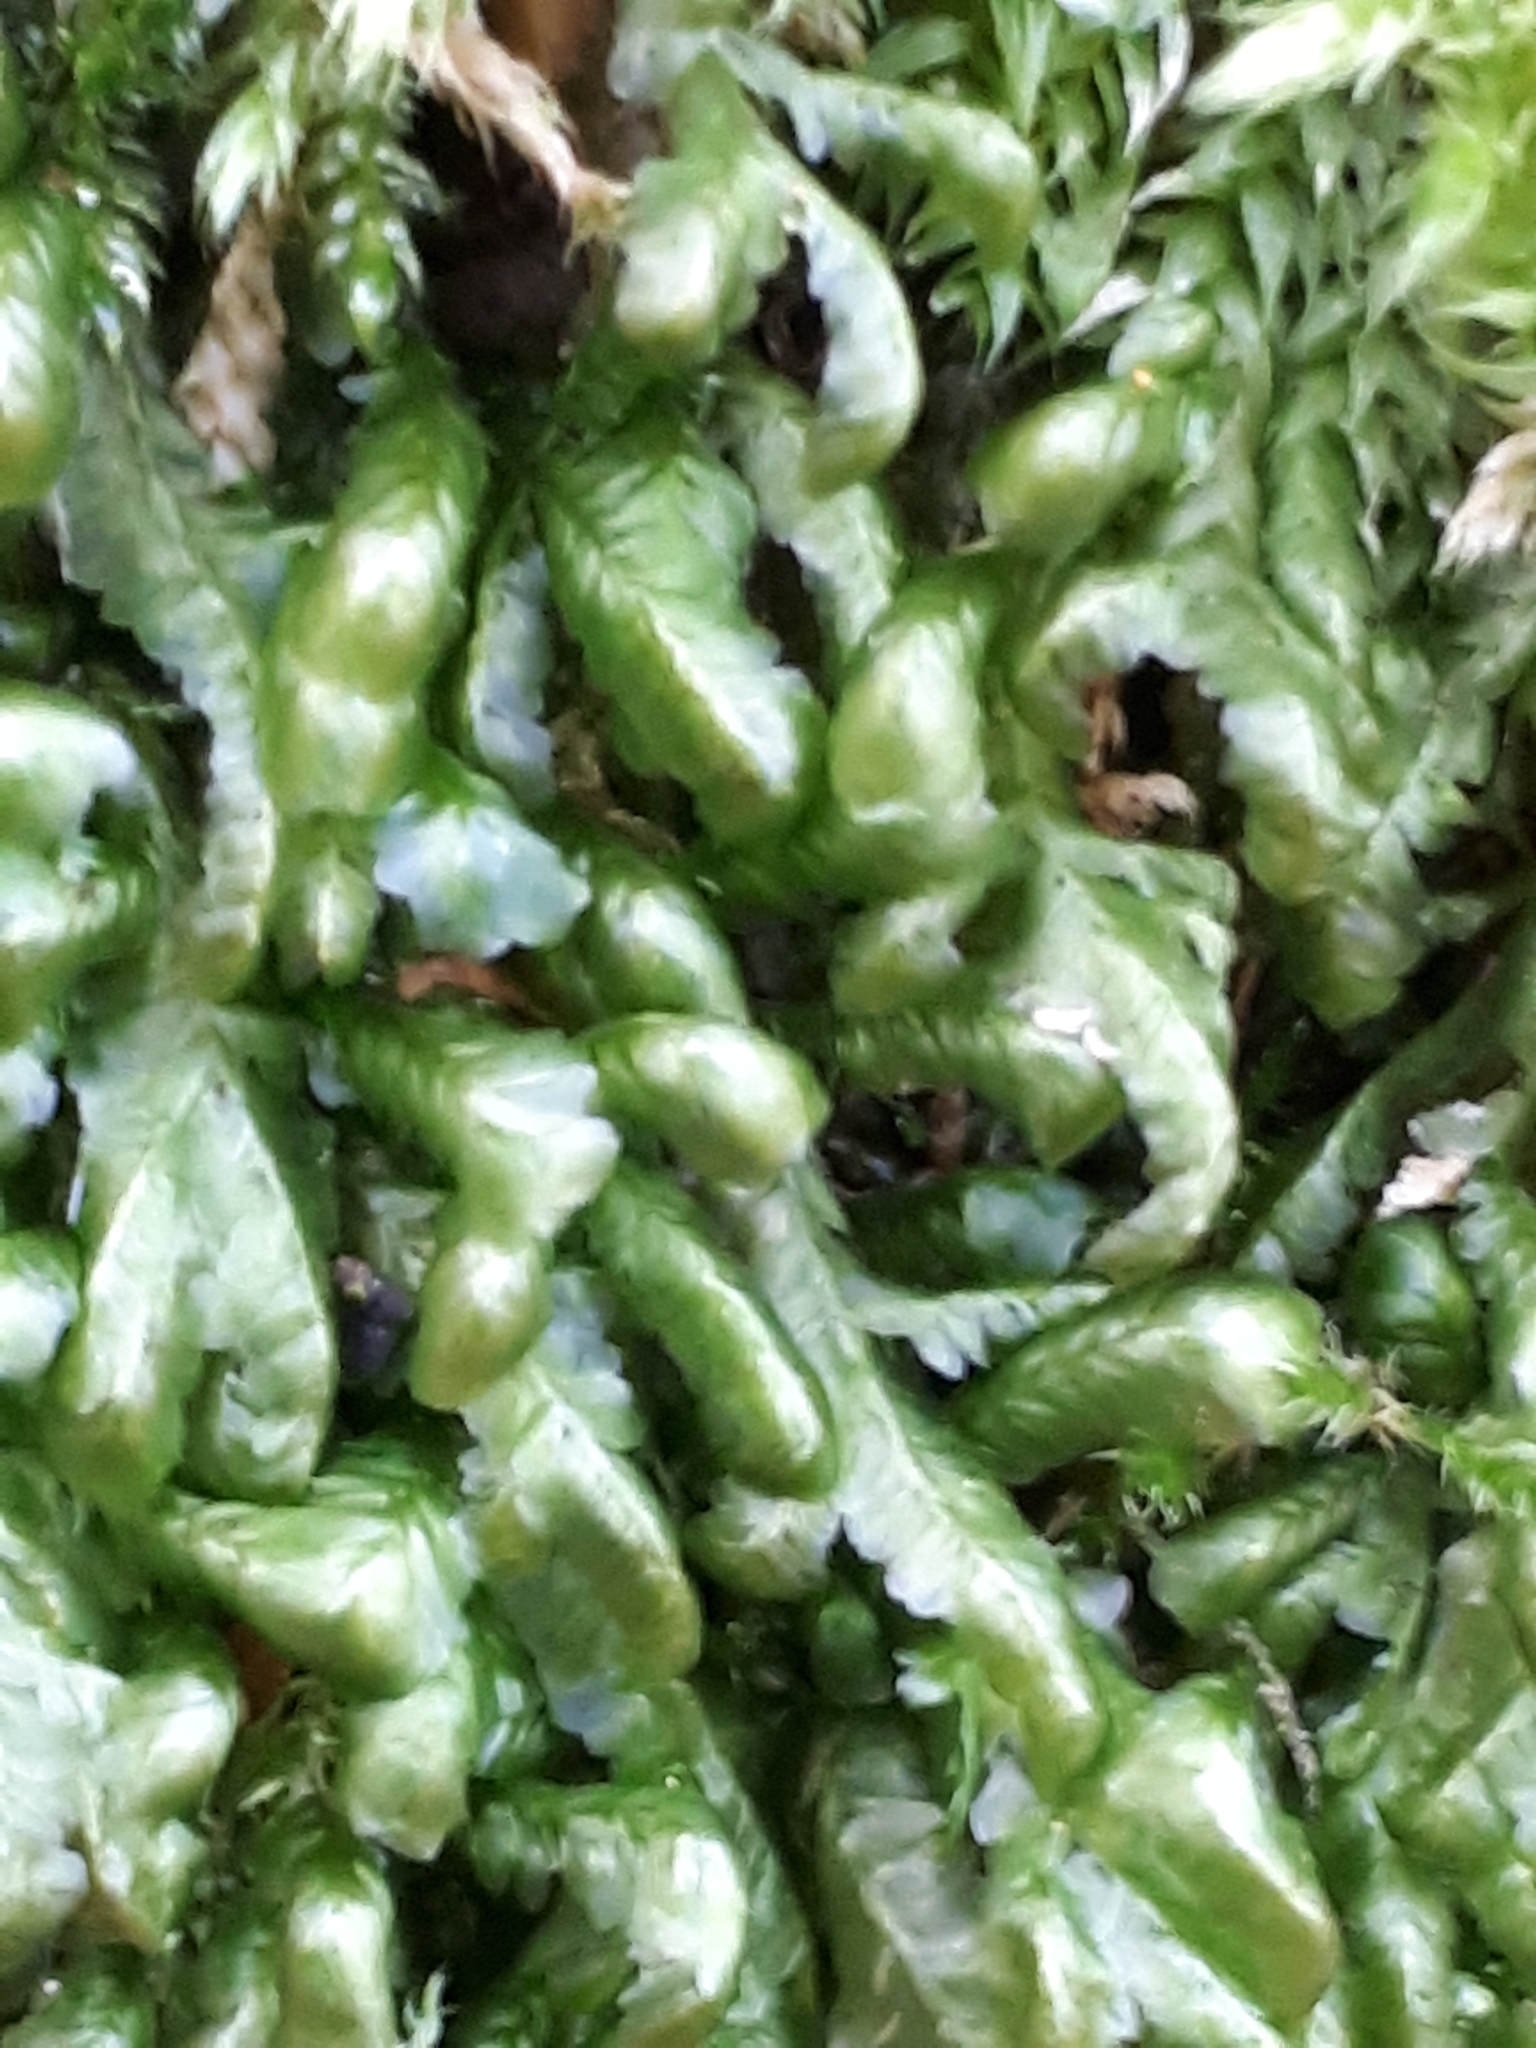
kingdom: Plantae
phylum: Bryophyta
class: Bryopsida
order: Hypnales
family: Neckeraceae
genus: Homalia
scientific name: Homalia trichomanoides
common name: Lime homalia moss
